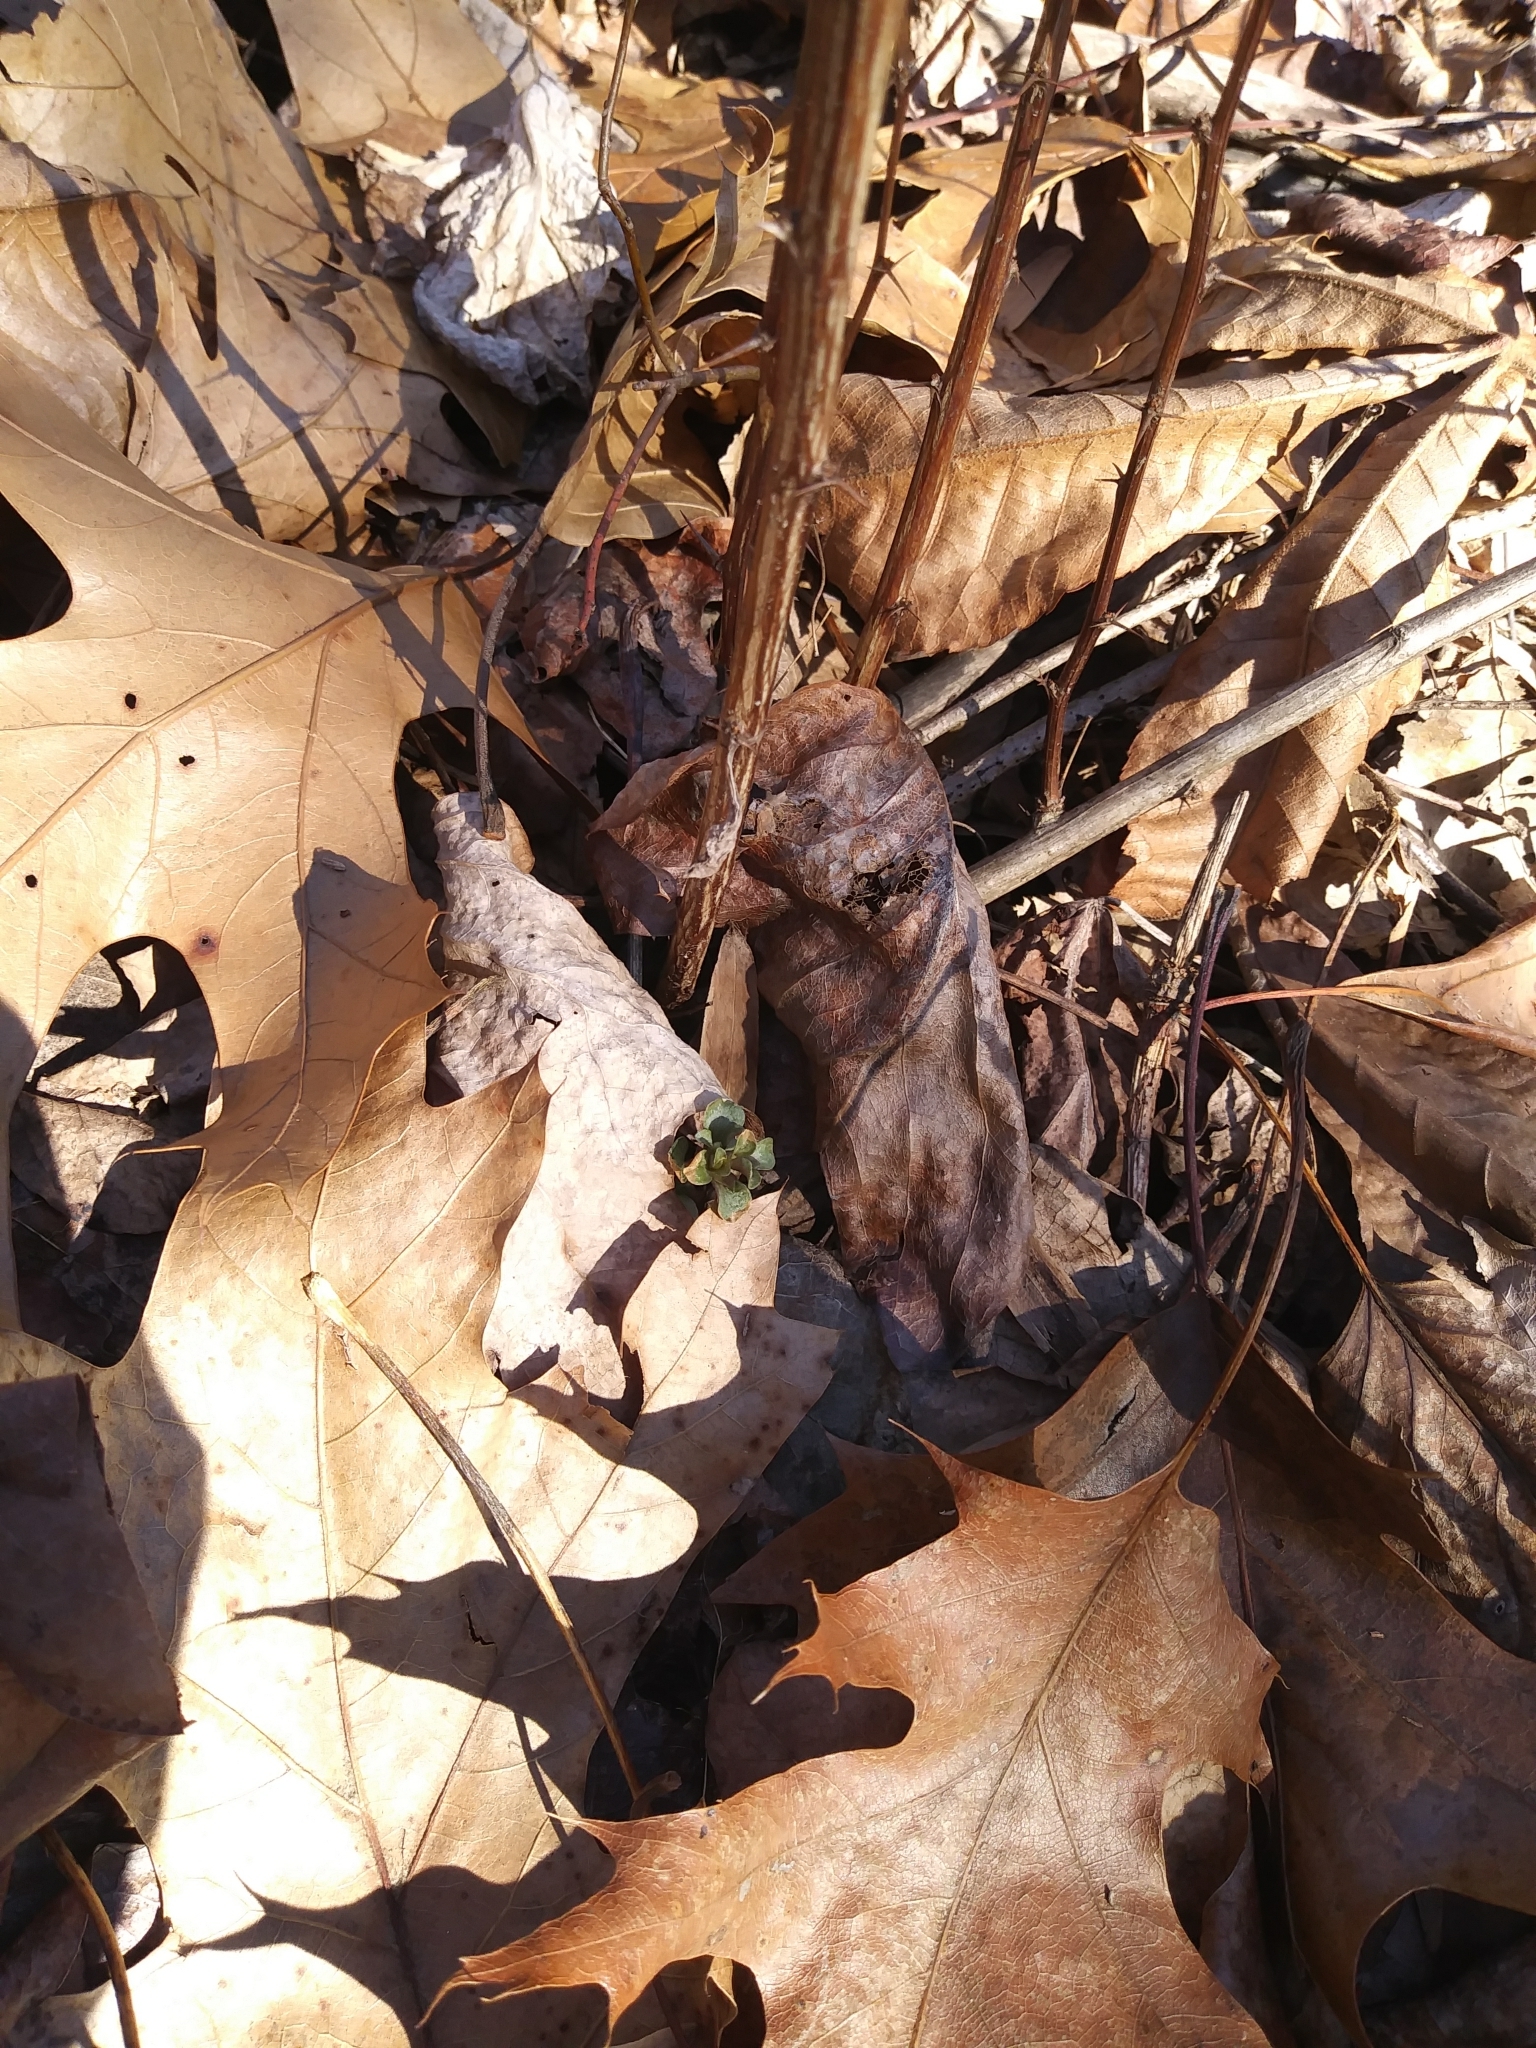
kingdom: Plantae
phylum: Tracheophyta
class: Magnoliopsida
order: Gentianales
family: Gentianaceae
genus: Obolaria
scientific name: Obolaria virginica
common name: Pennywort
